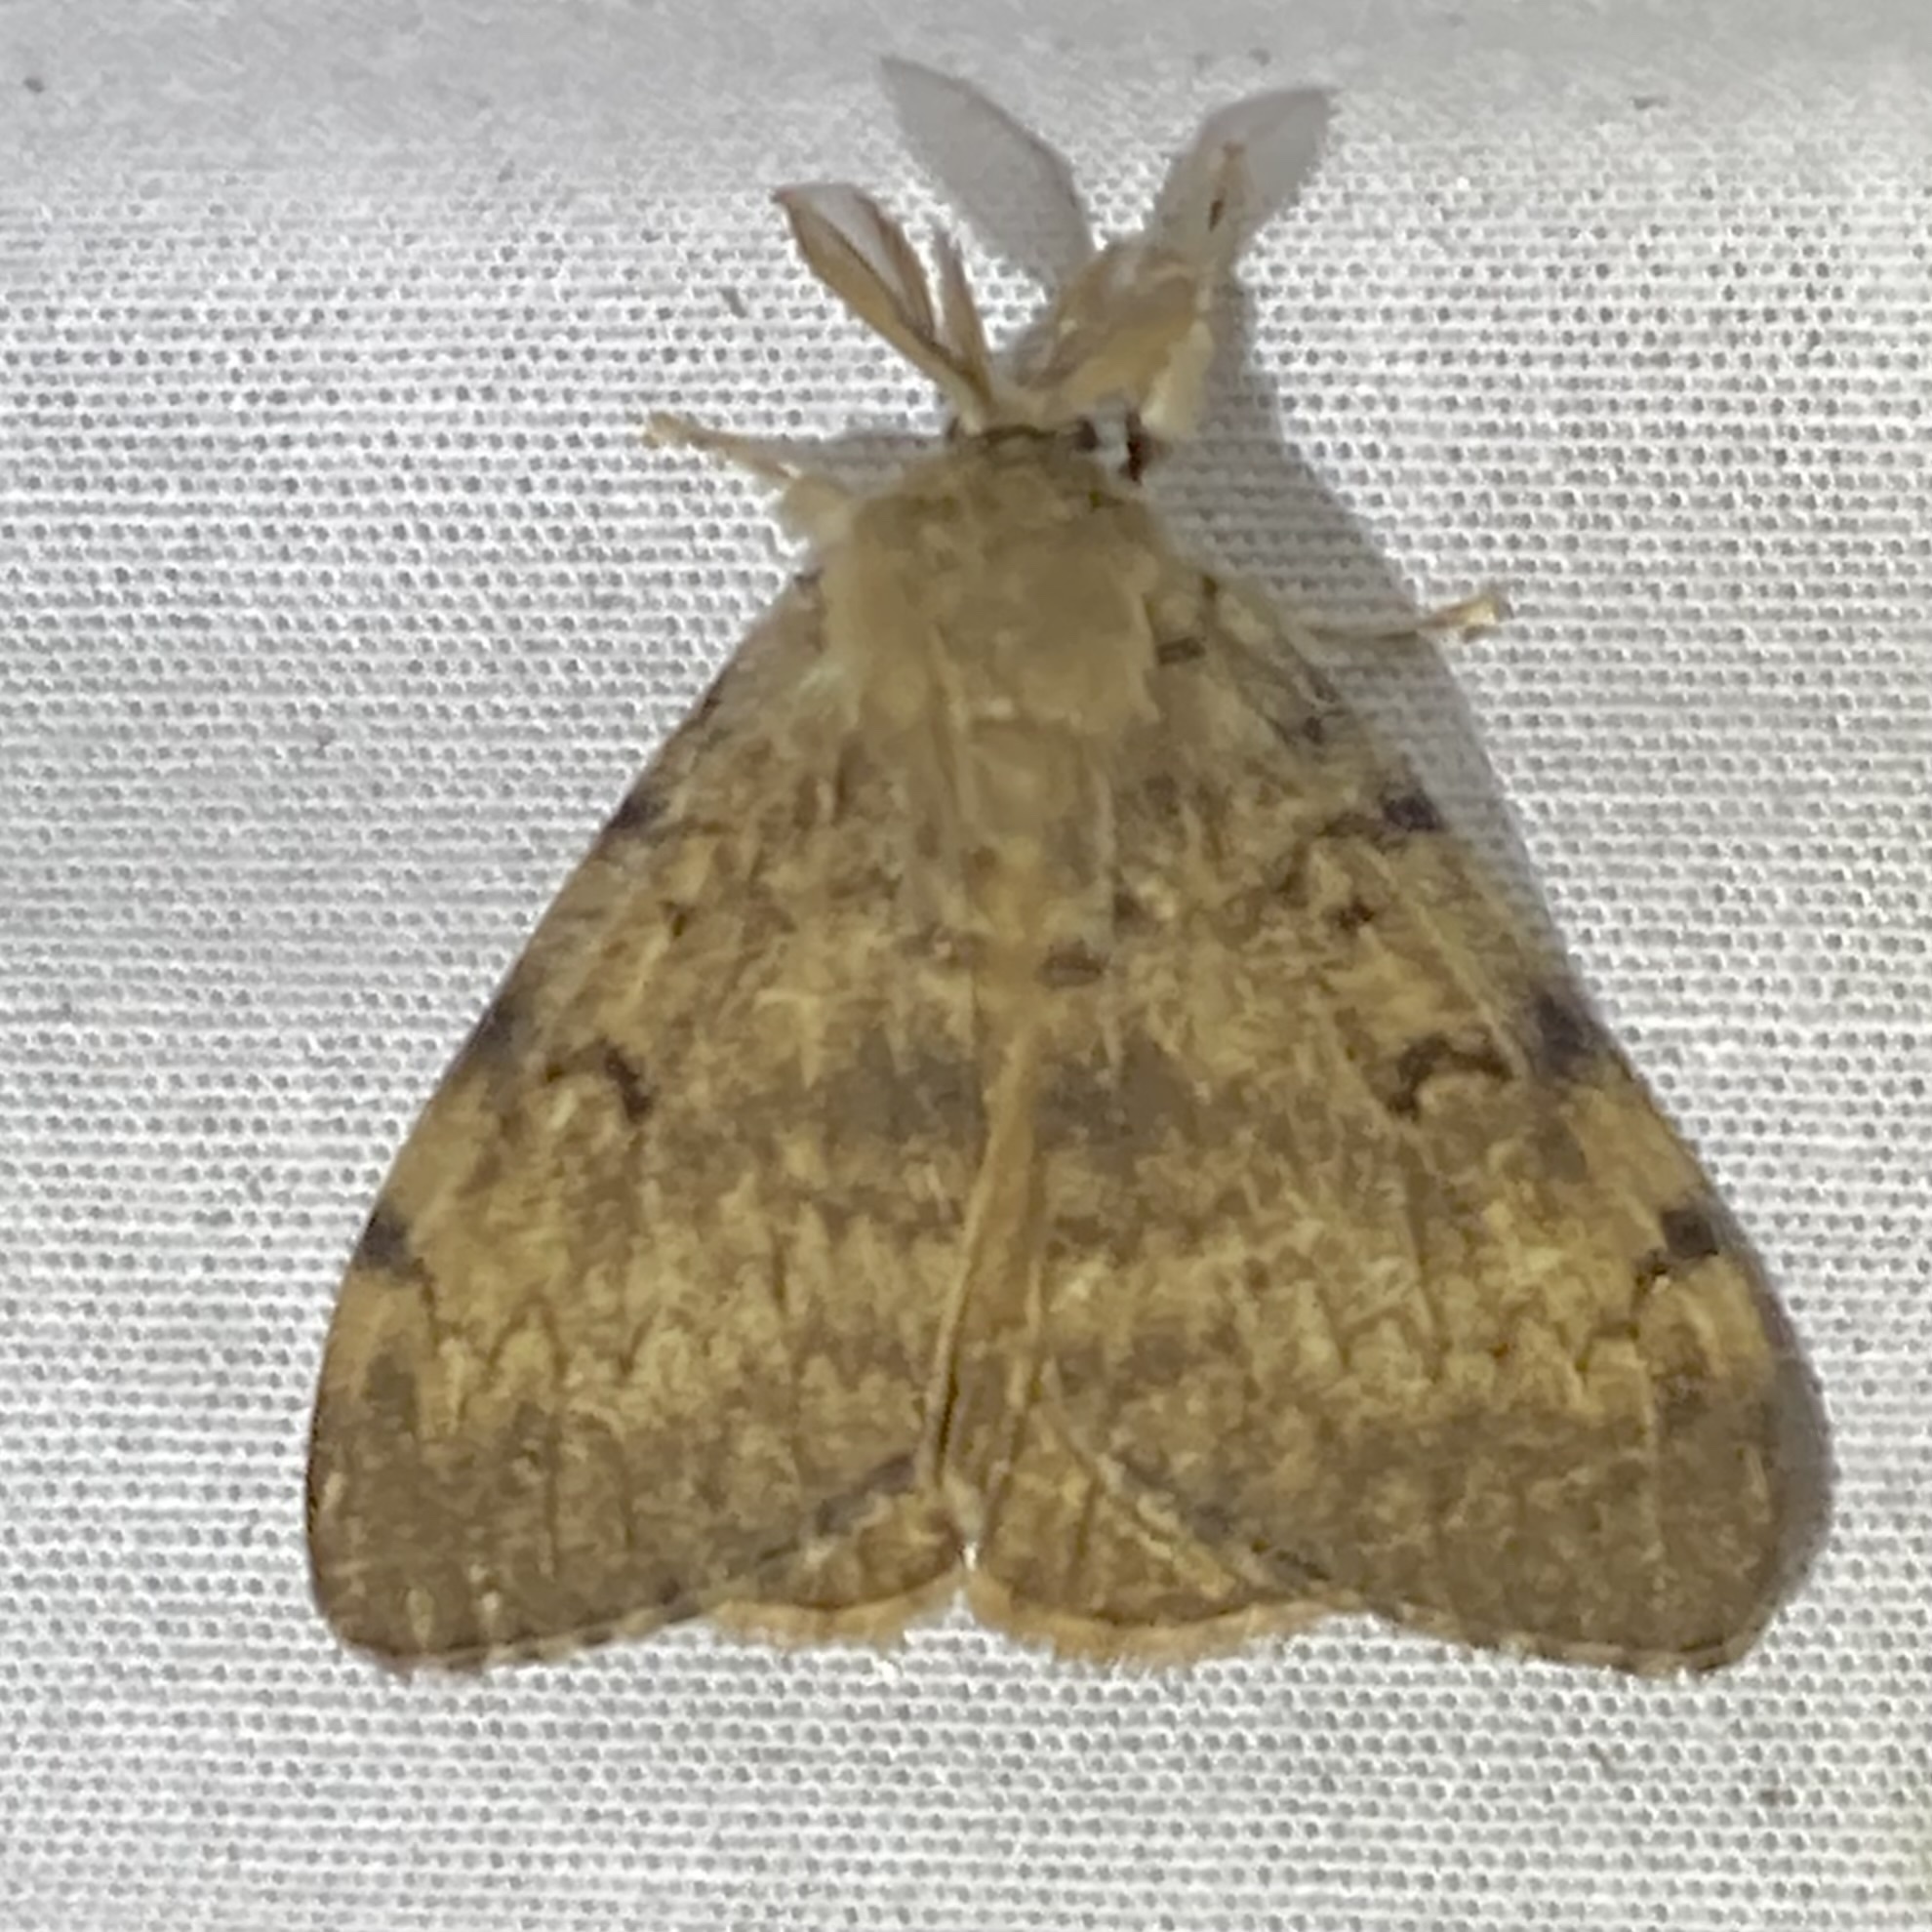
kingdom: Animalia
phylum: Arthropoda
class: Insecta
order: Lepidoptera
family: Erebidae
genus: Lymantria
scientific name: Lymantria dispar
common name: Gypsy moth
